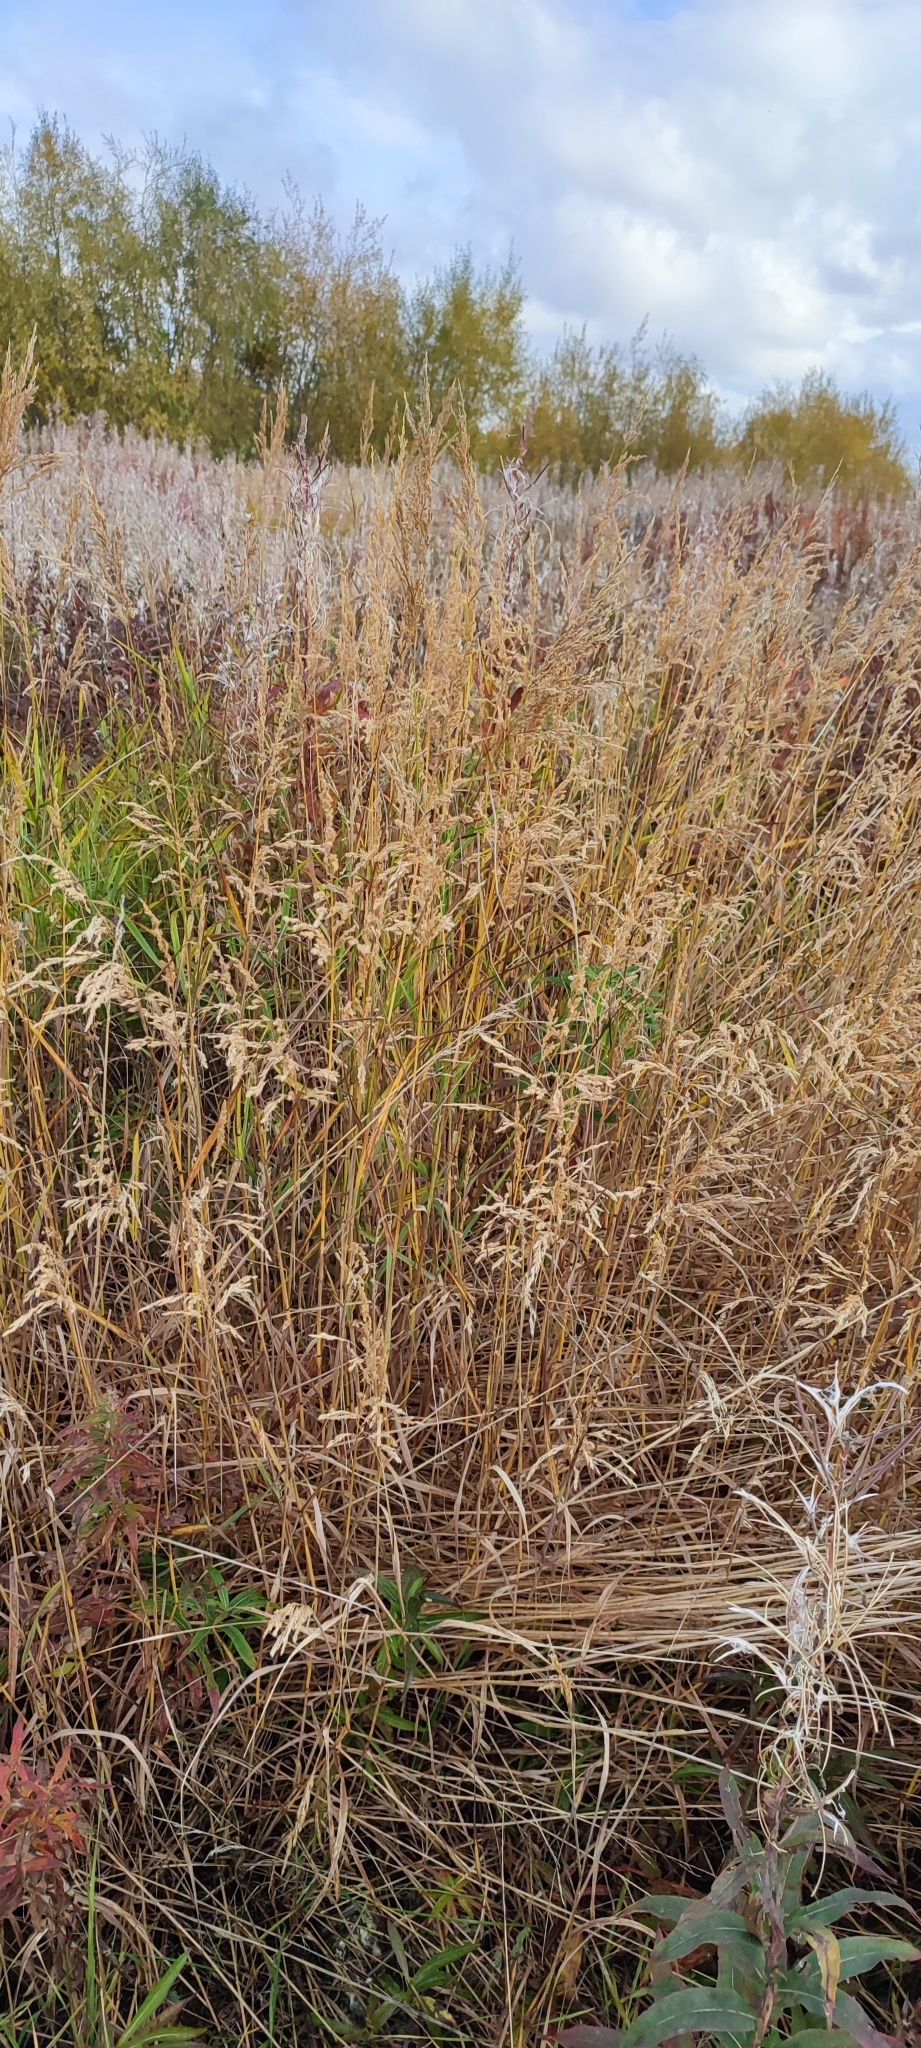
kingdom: Plantae
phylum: Tracheophyta
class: Liliopsida
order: Poales
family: Poaceae
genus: Calamagrostis
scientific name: Calamagrostis purpurea
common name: Scandinavian small-reed
